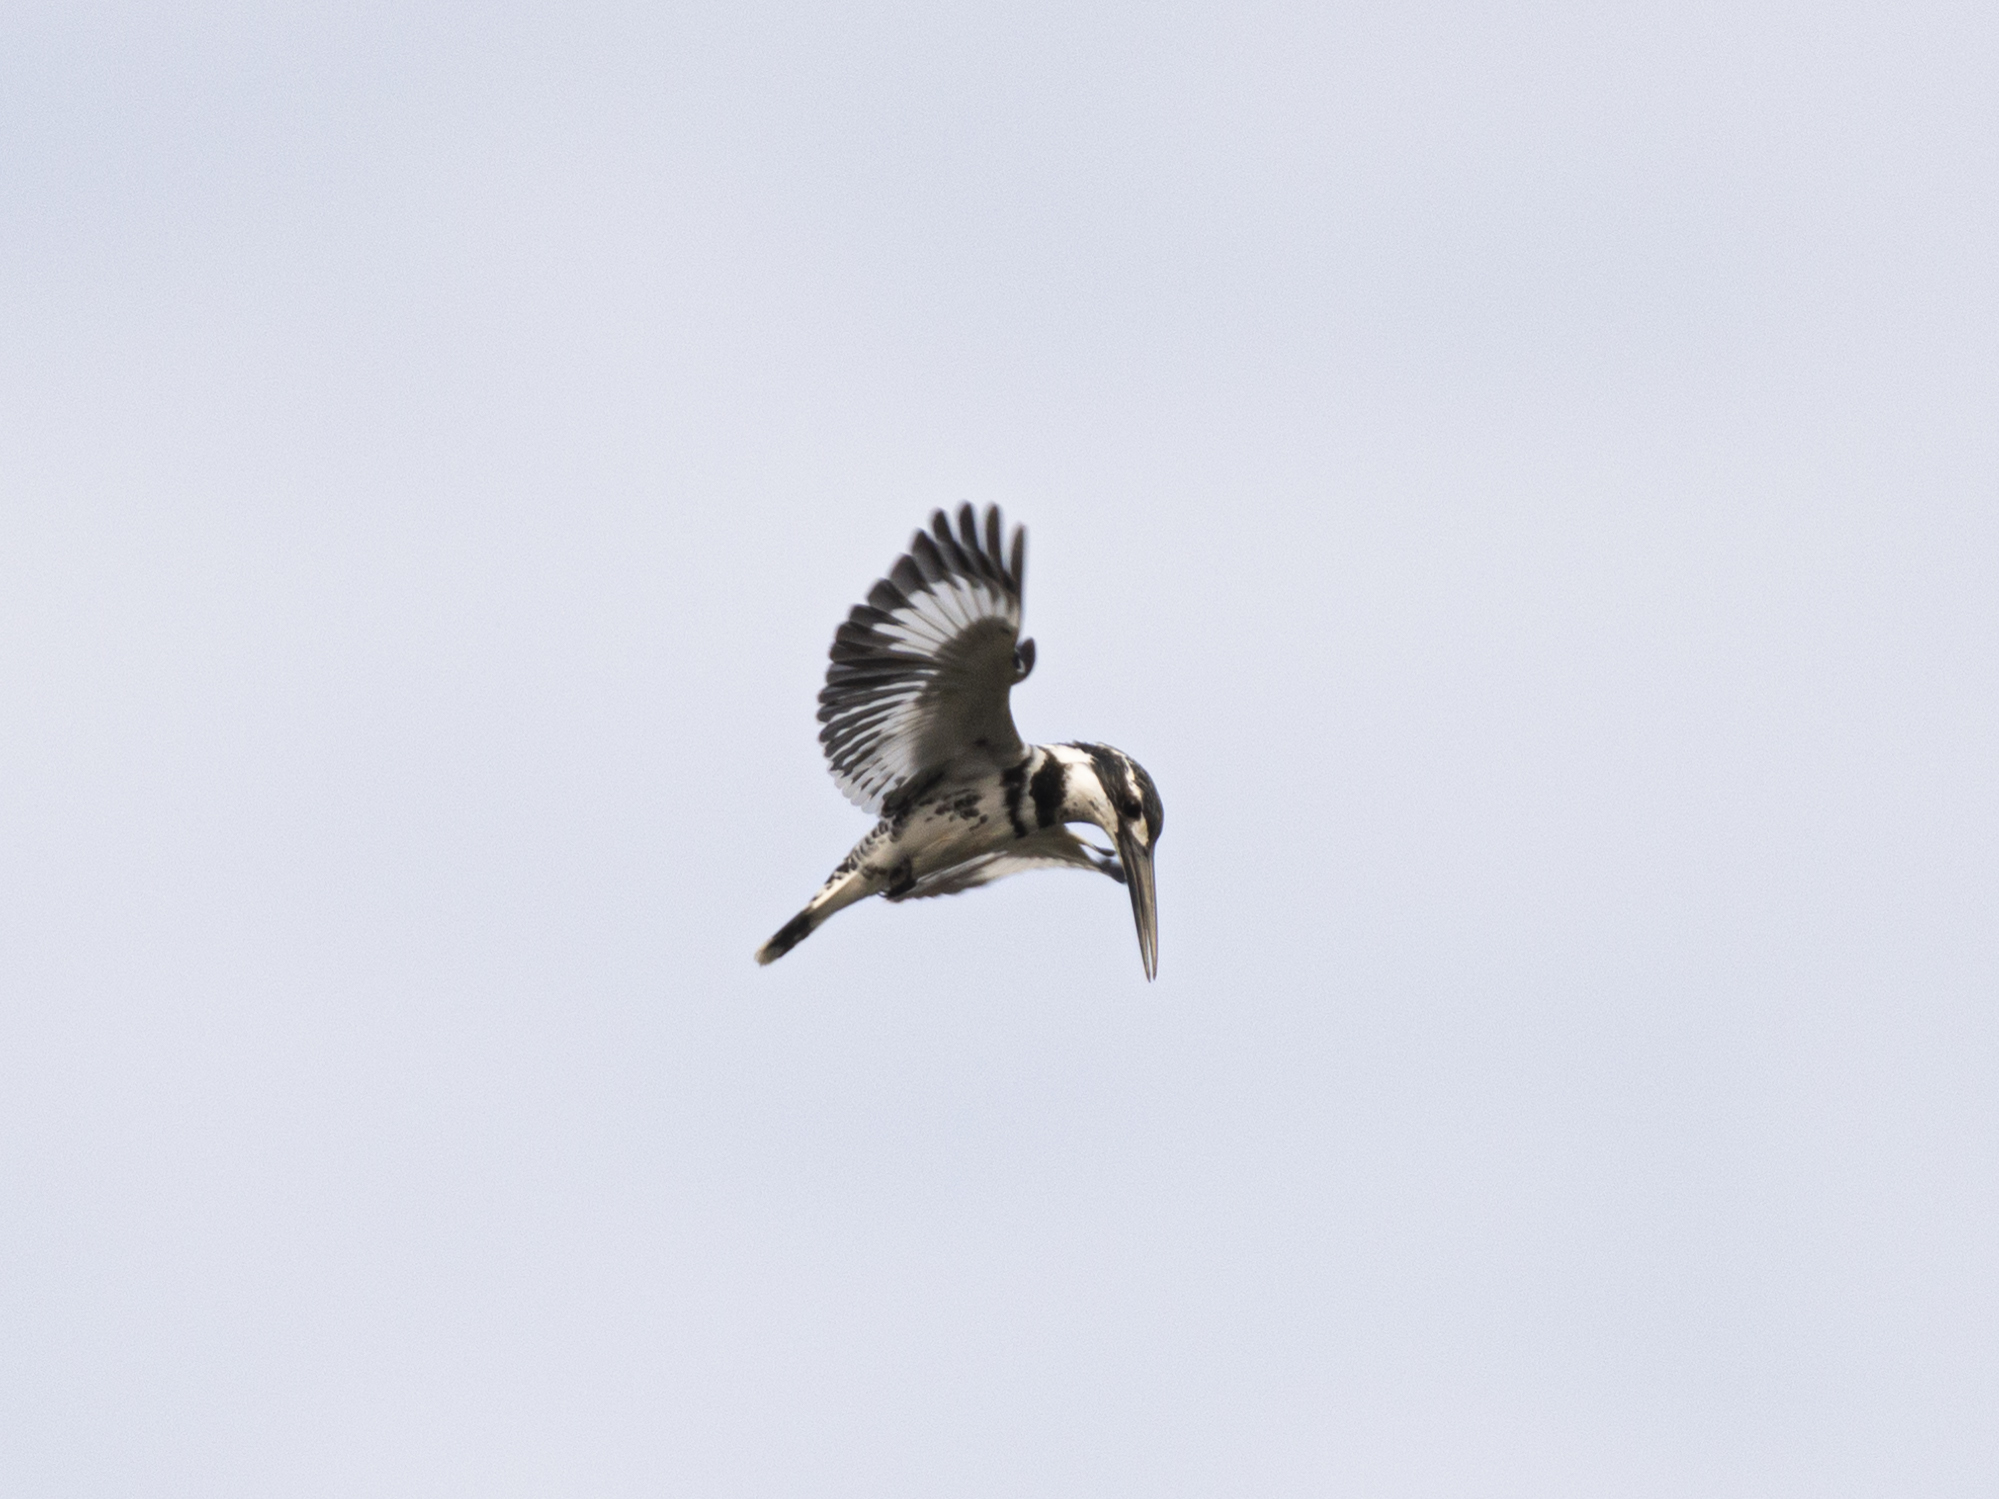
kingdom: Animalia
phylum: Chordata
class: Aves
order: Coraciiformes
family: Alcedinidae
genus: Ceryle
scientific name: Ceryle rudis
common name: Pied kingfisher
